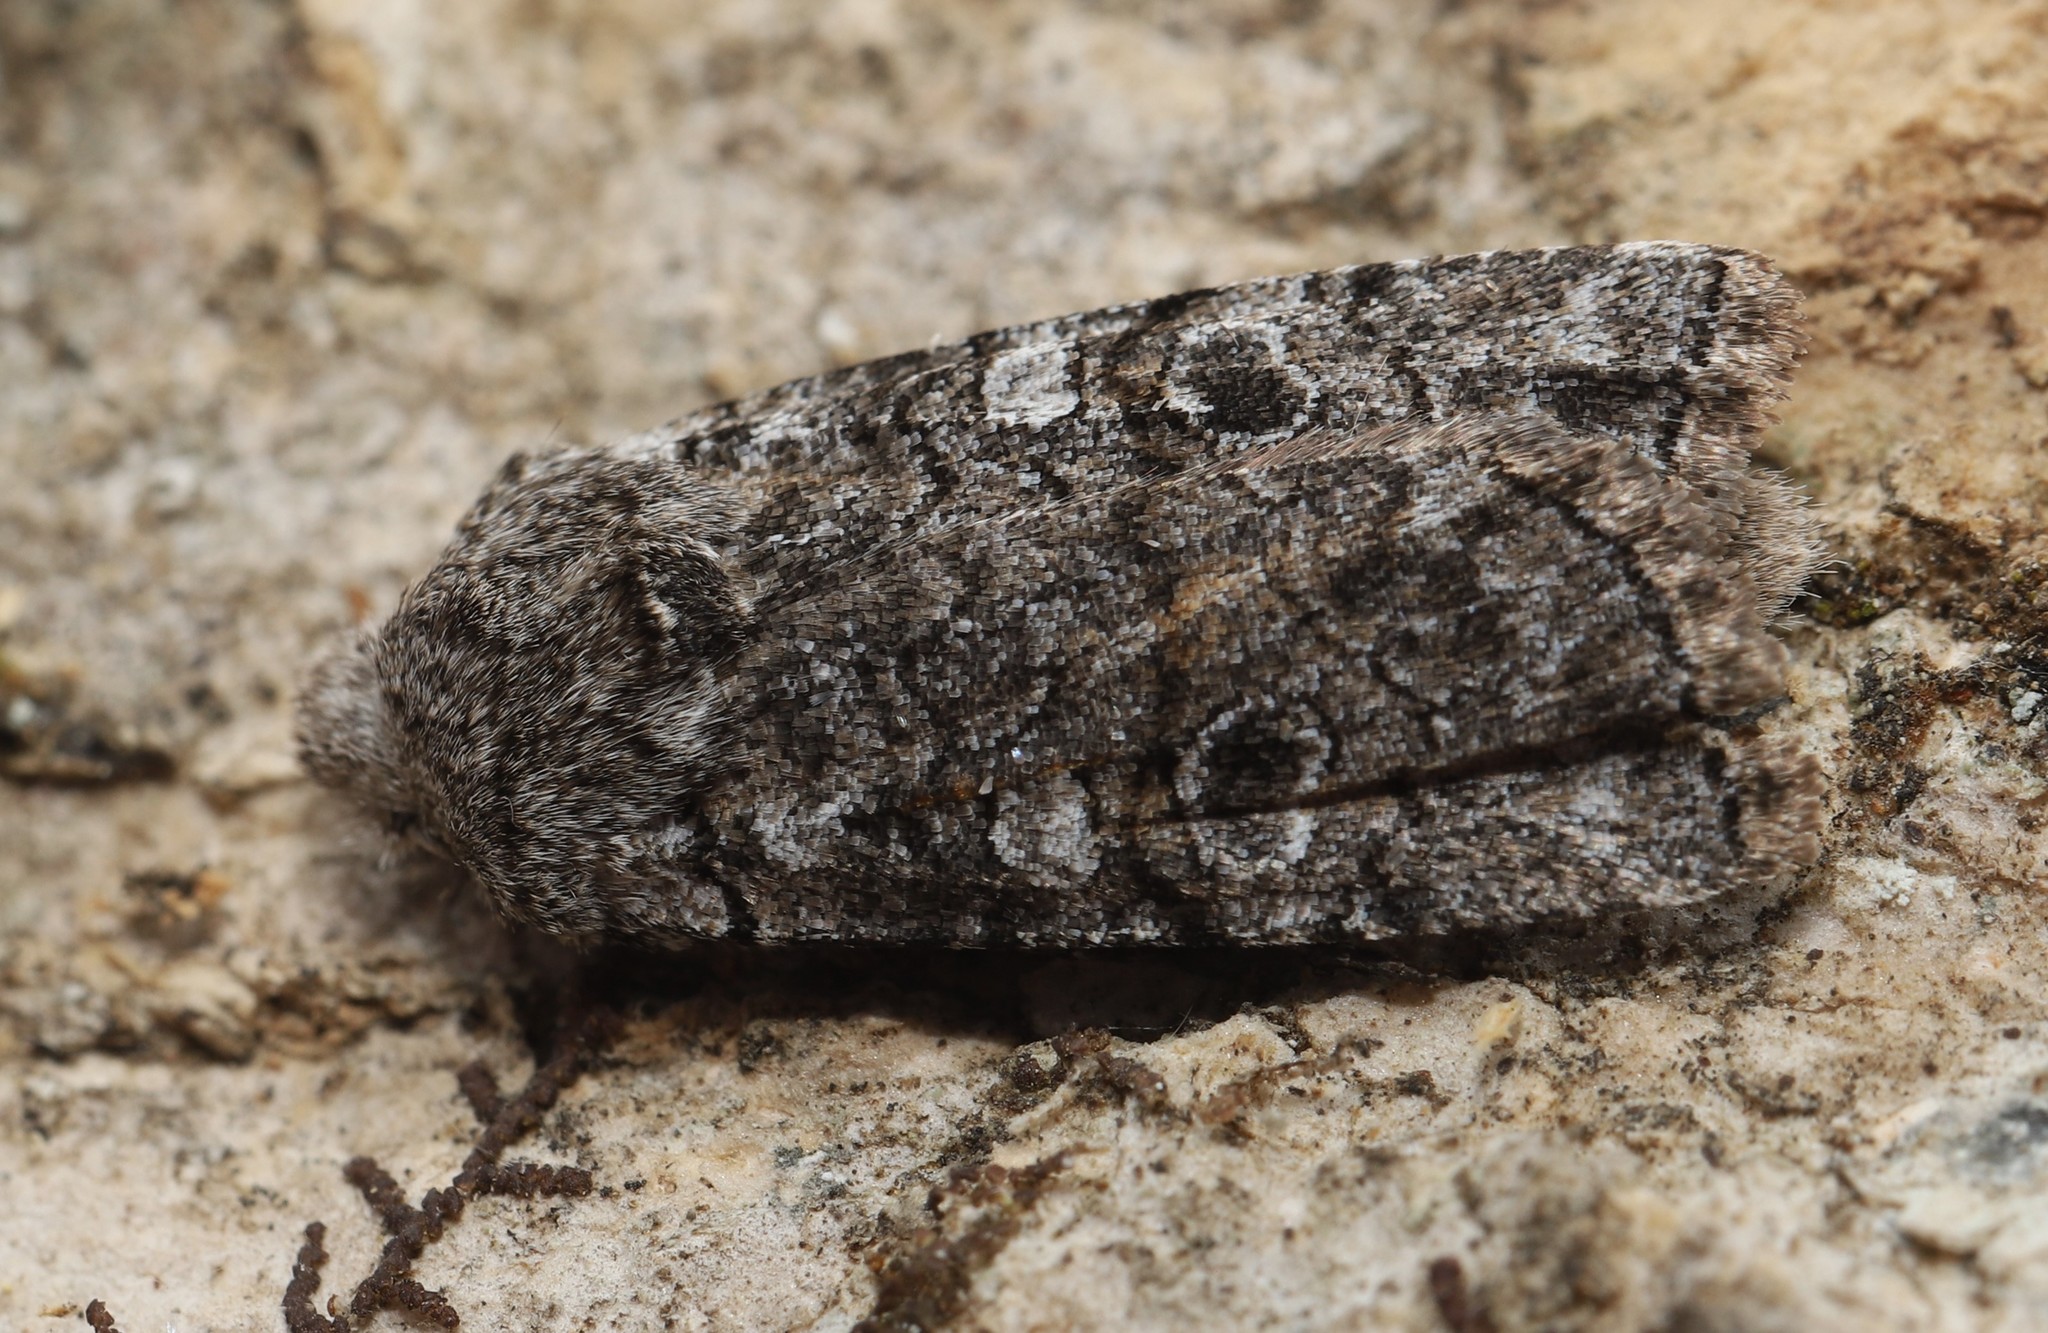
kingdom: Animalia
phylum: Arthropoda
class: Insecta
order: Lepidoptera
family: Noctuidae
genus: Litholomia
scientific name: Litholomia napaea
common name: False pinion moth
